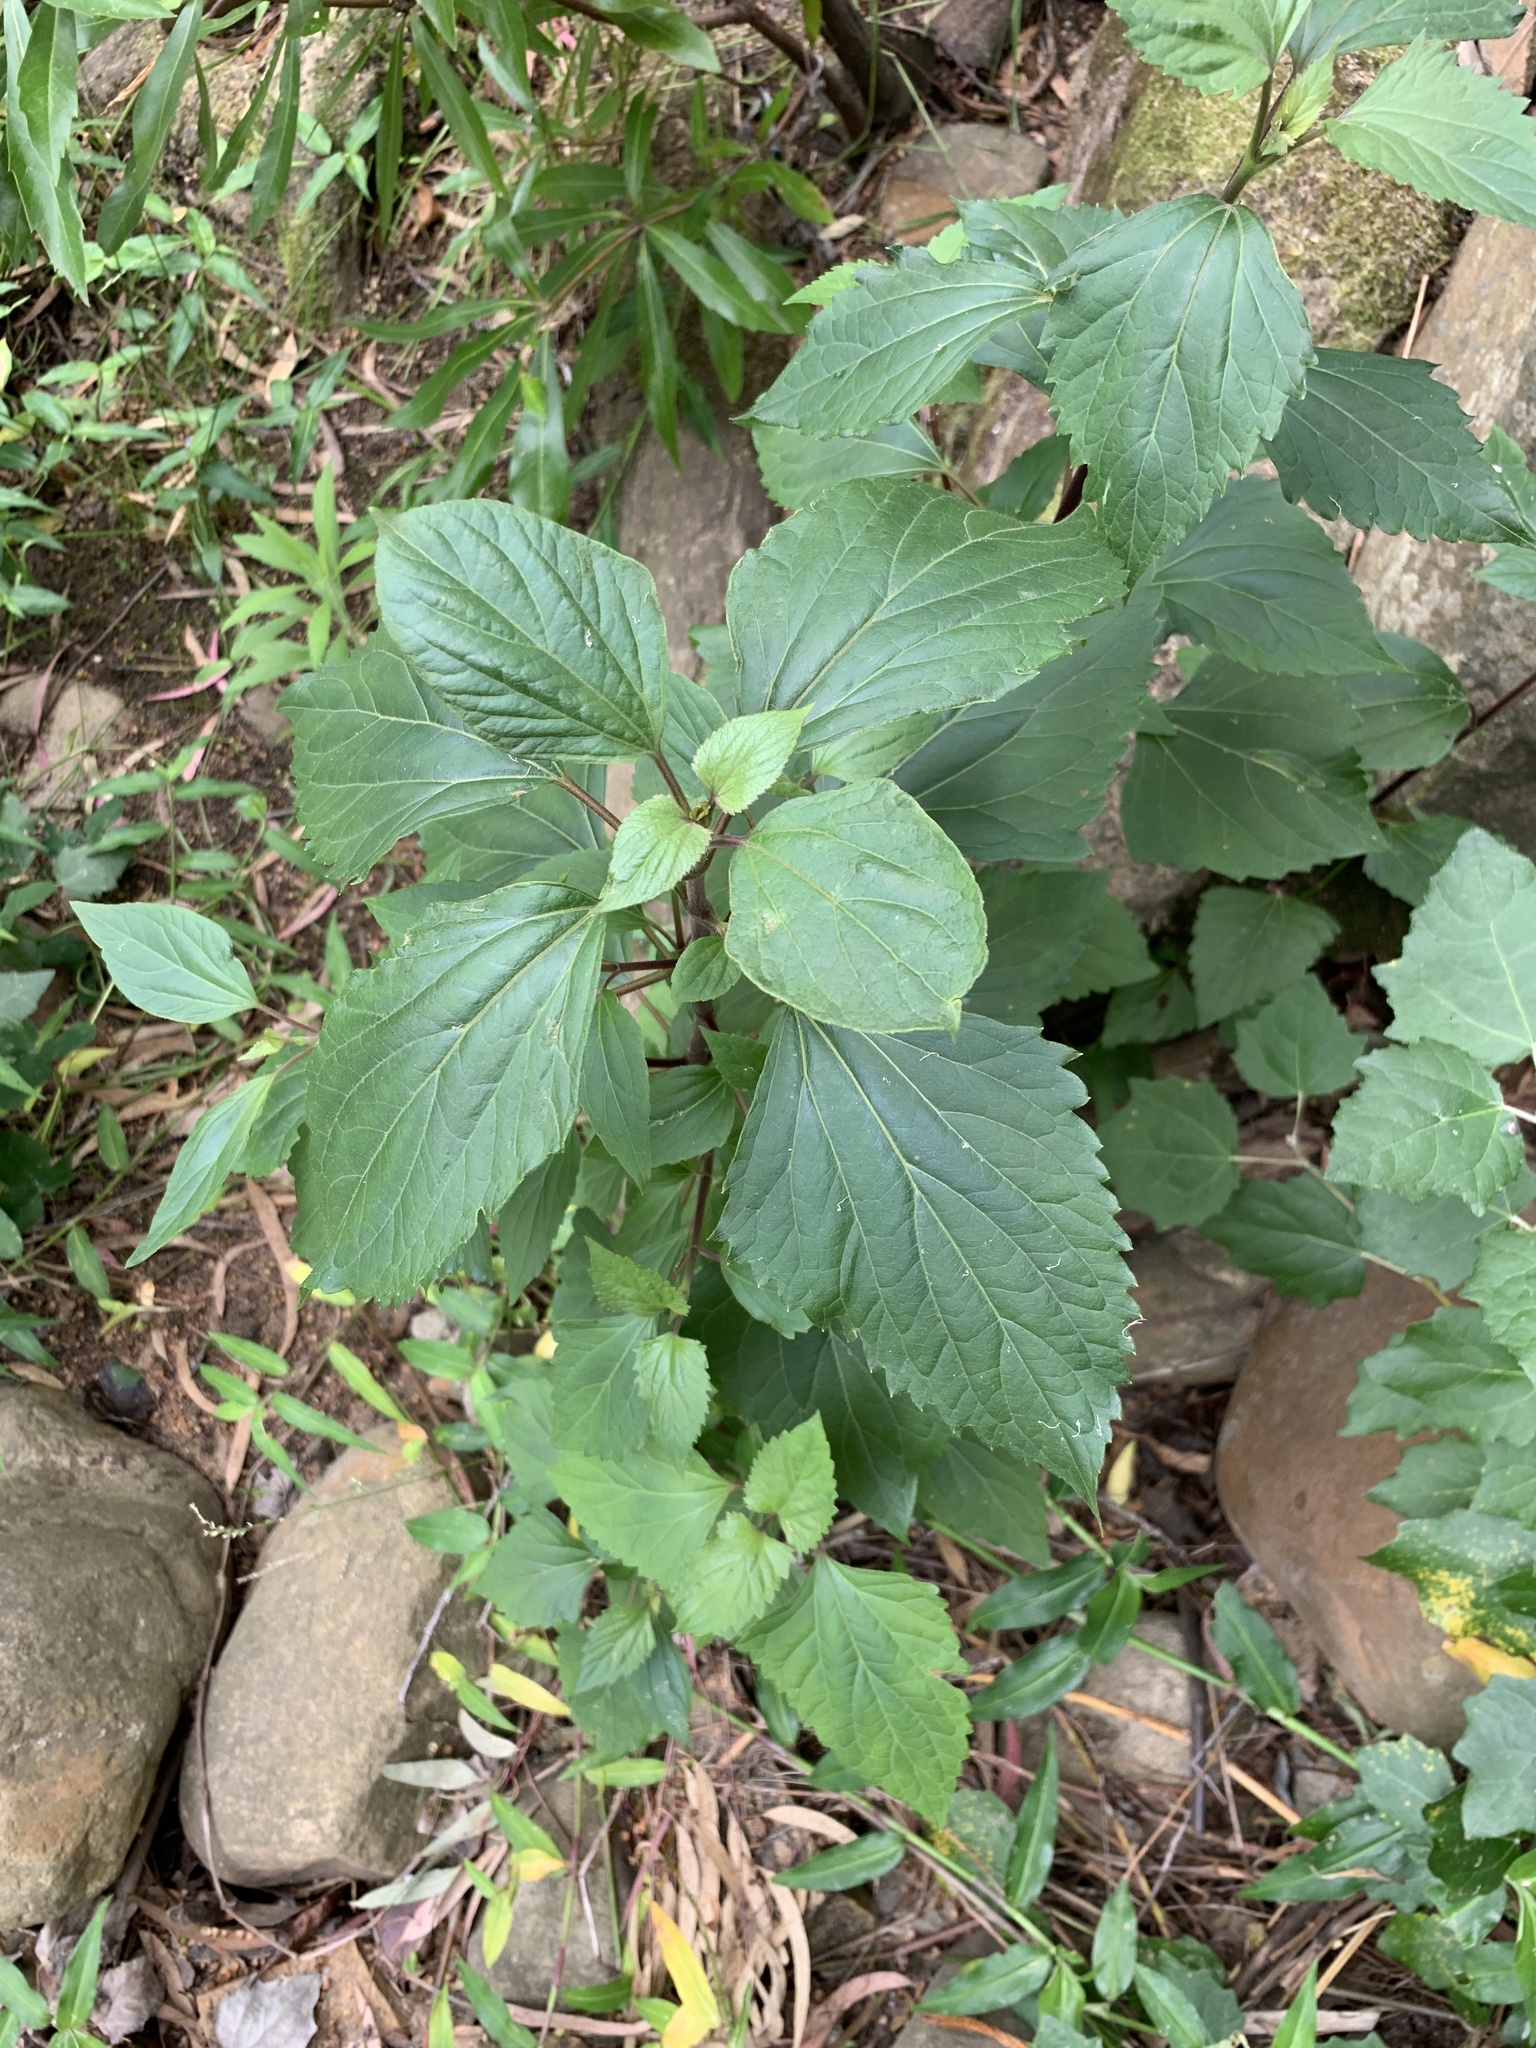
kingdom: Plantae
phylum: Tracheophyta
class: Magnoliopsida
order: Asterales
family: Asteraceae
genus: Ageratina
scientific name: Ageratina adenophora
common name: Sticky snakeroot
